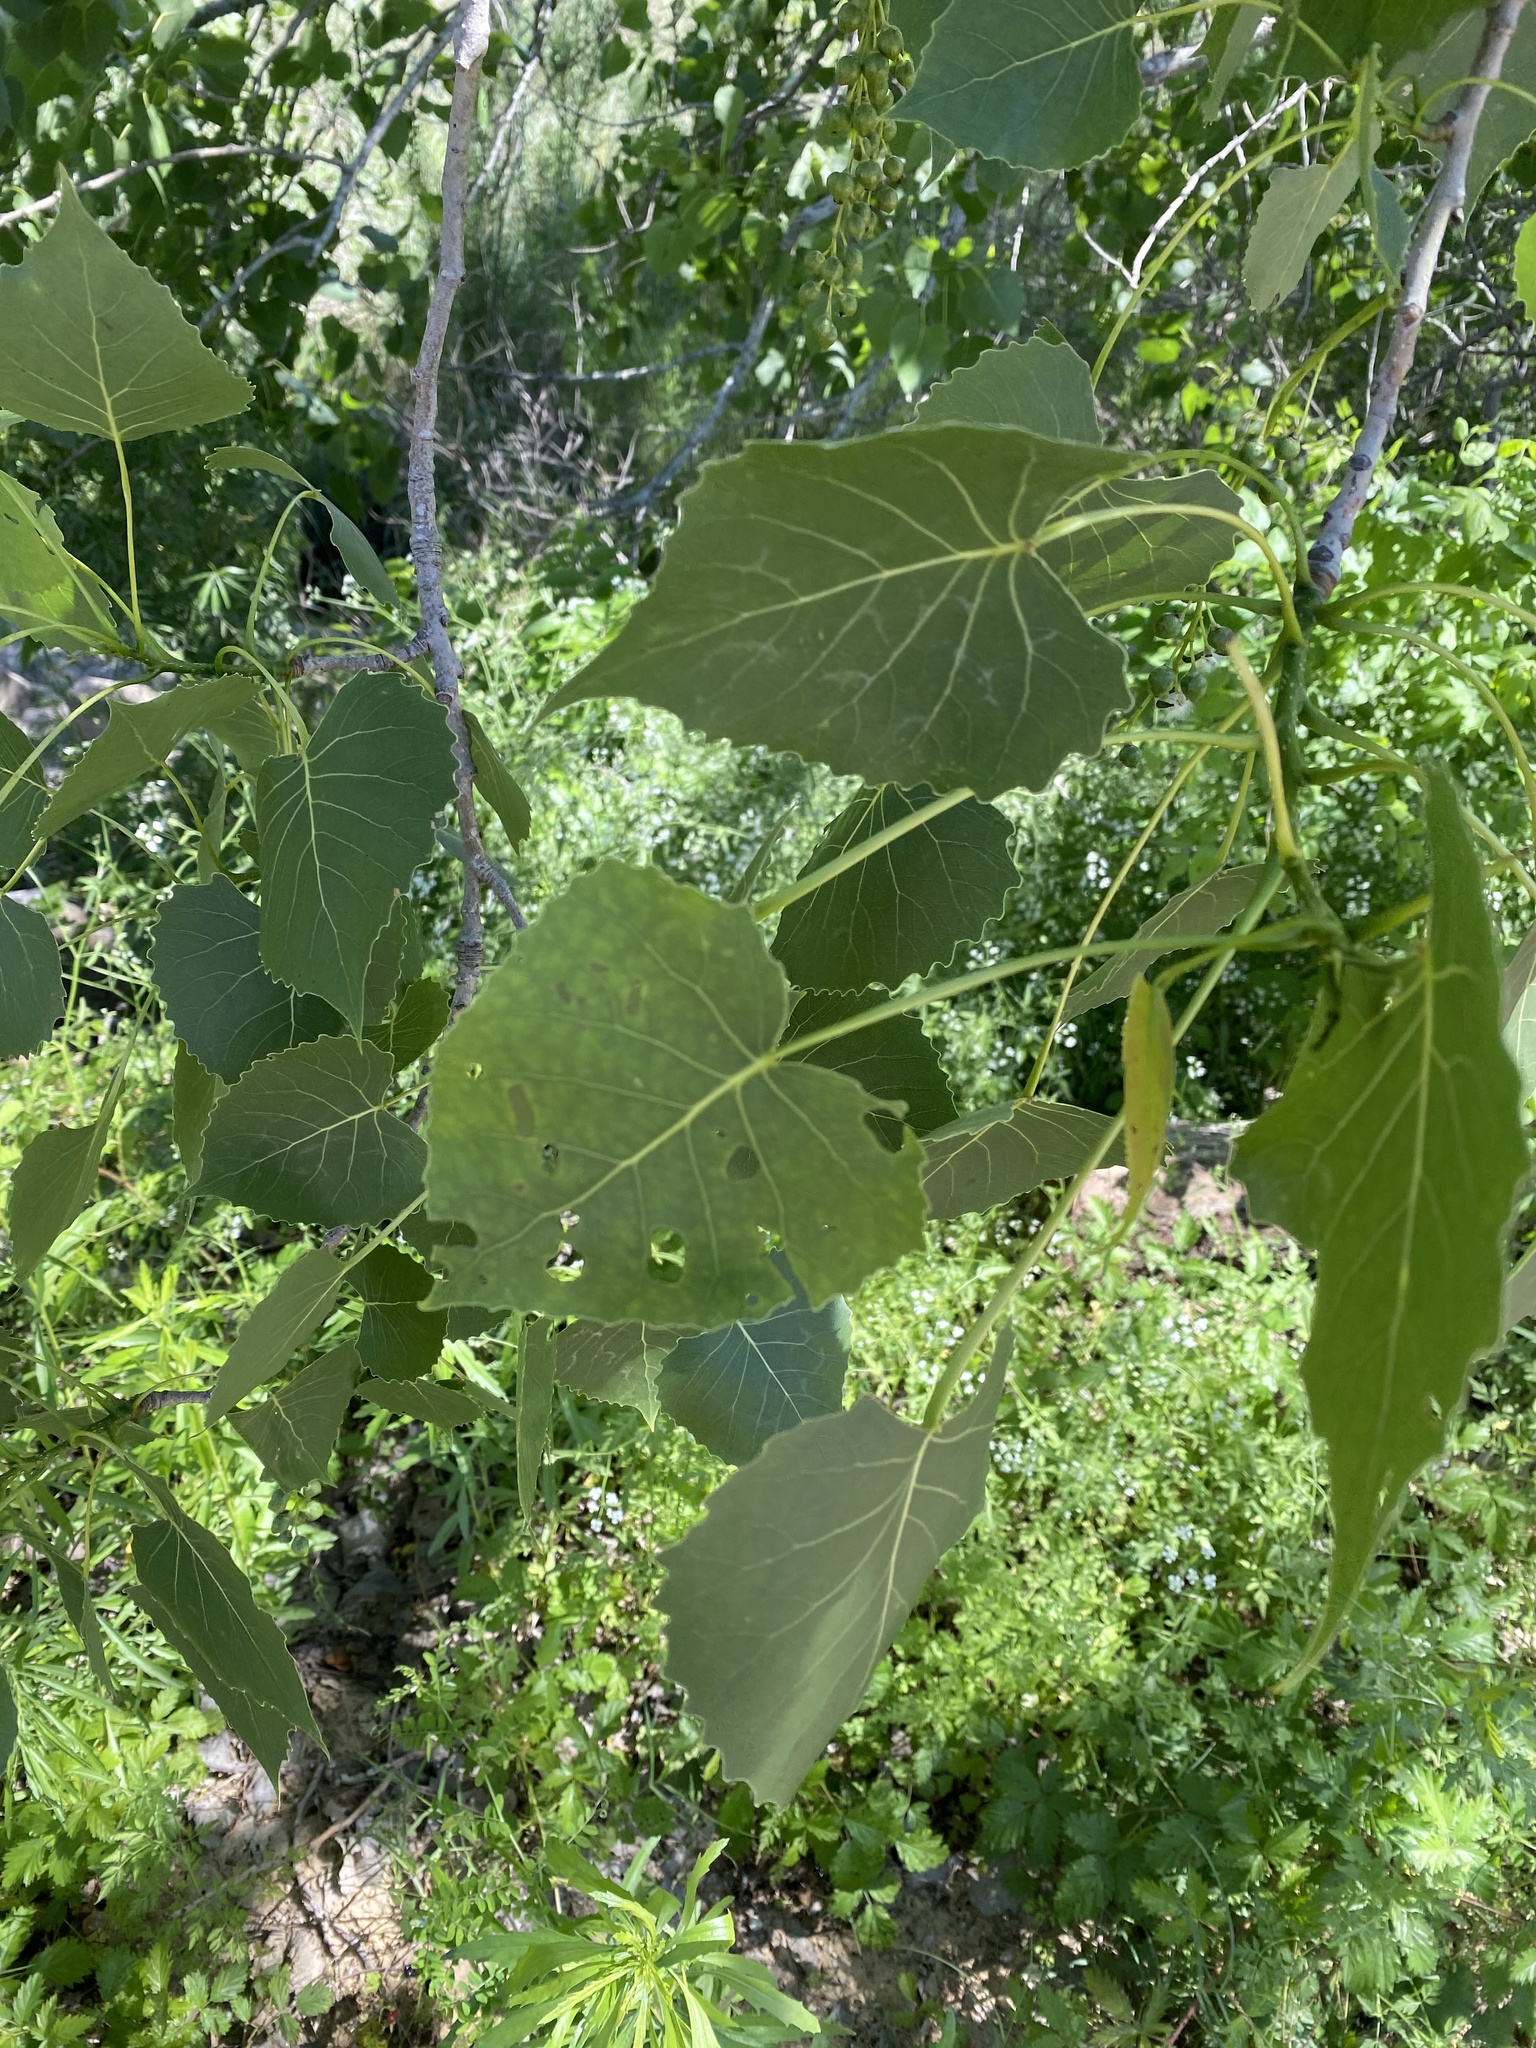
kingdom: Plantae
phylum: Tracheophyta
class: Magnoliopsida
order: Malpighiales
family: Salicaceae
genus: Populus
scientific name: Populus deltoides
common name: Eastern cottonwood
